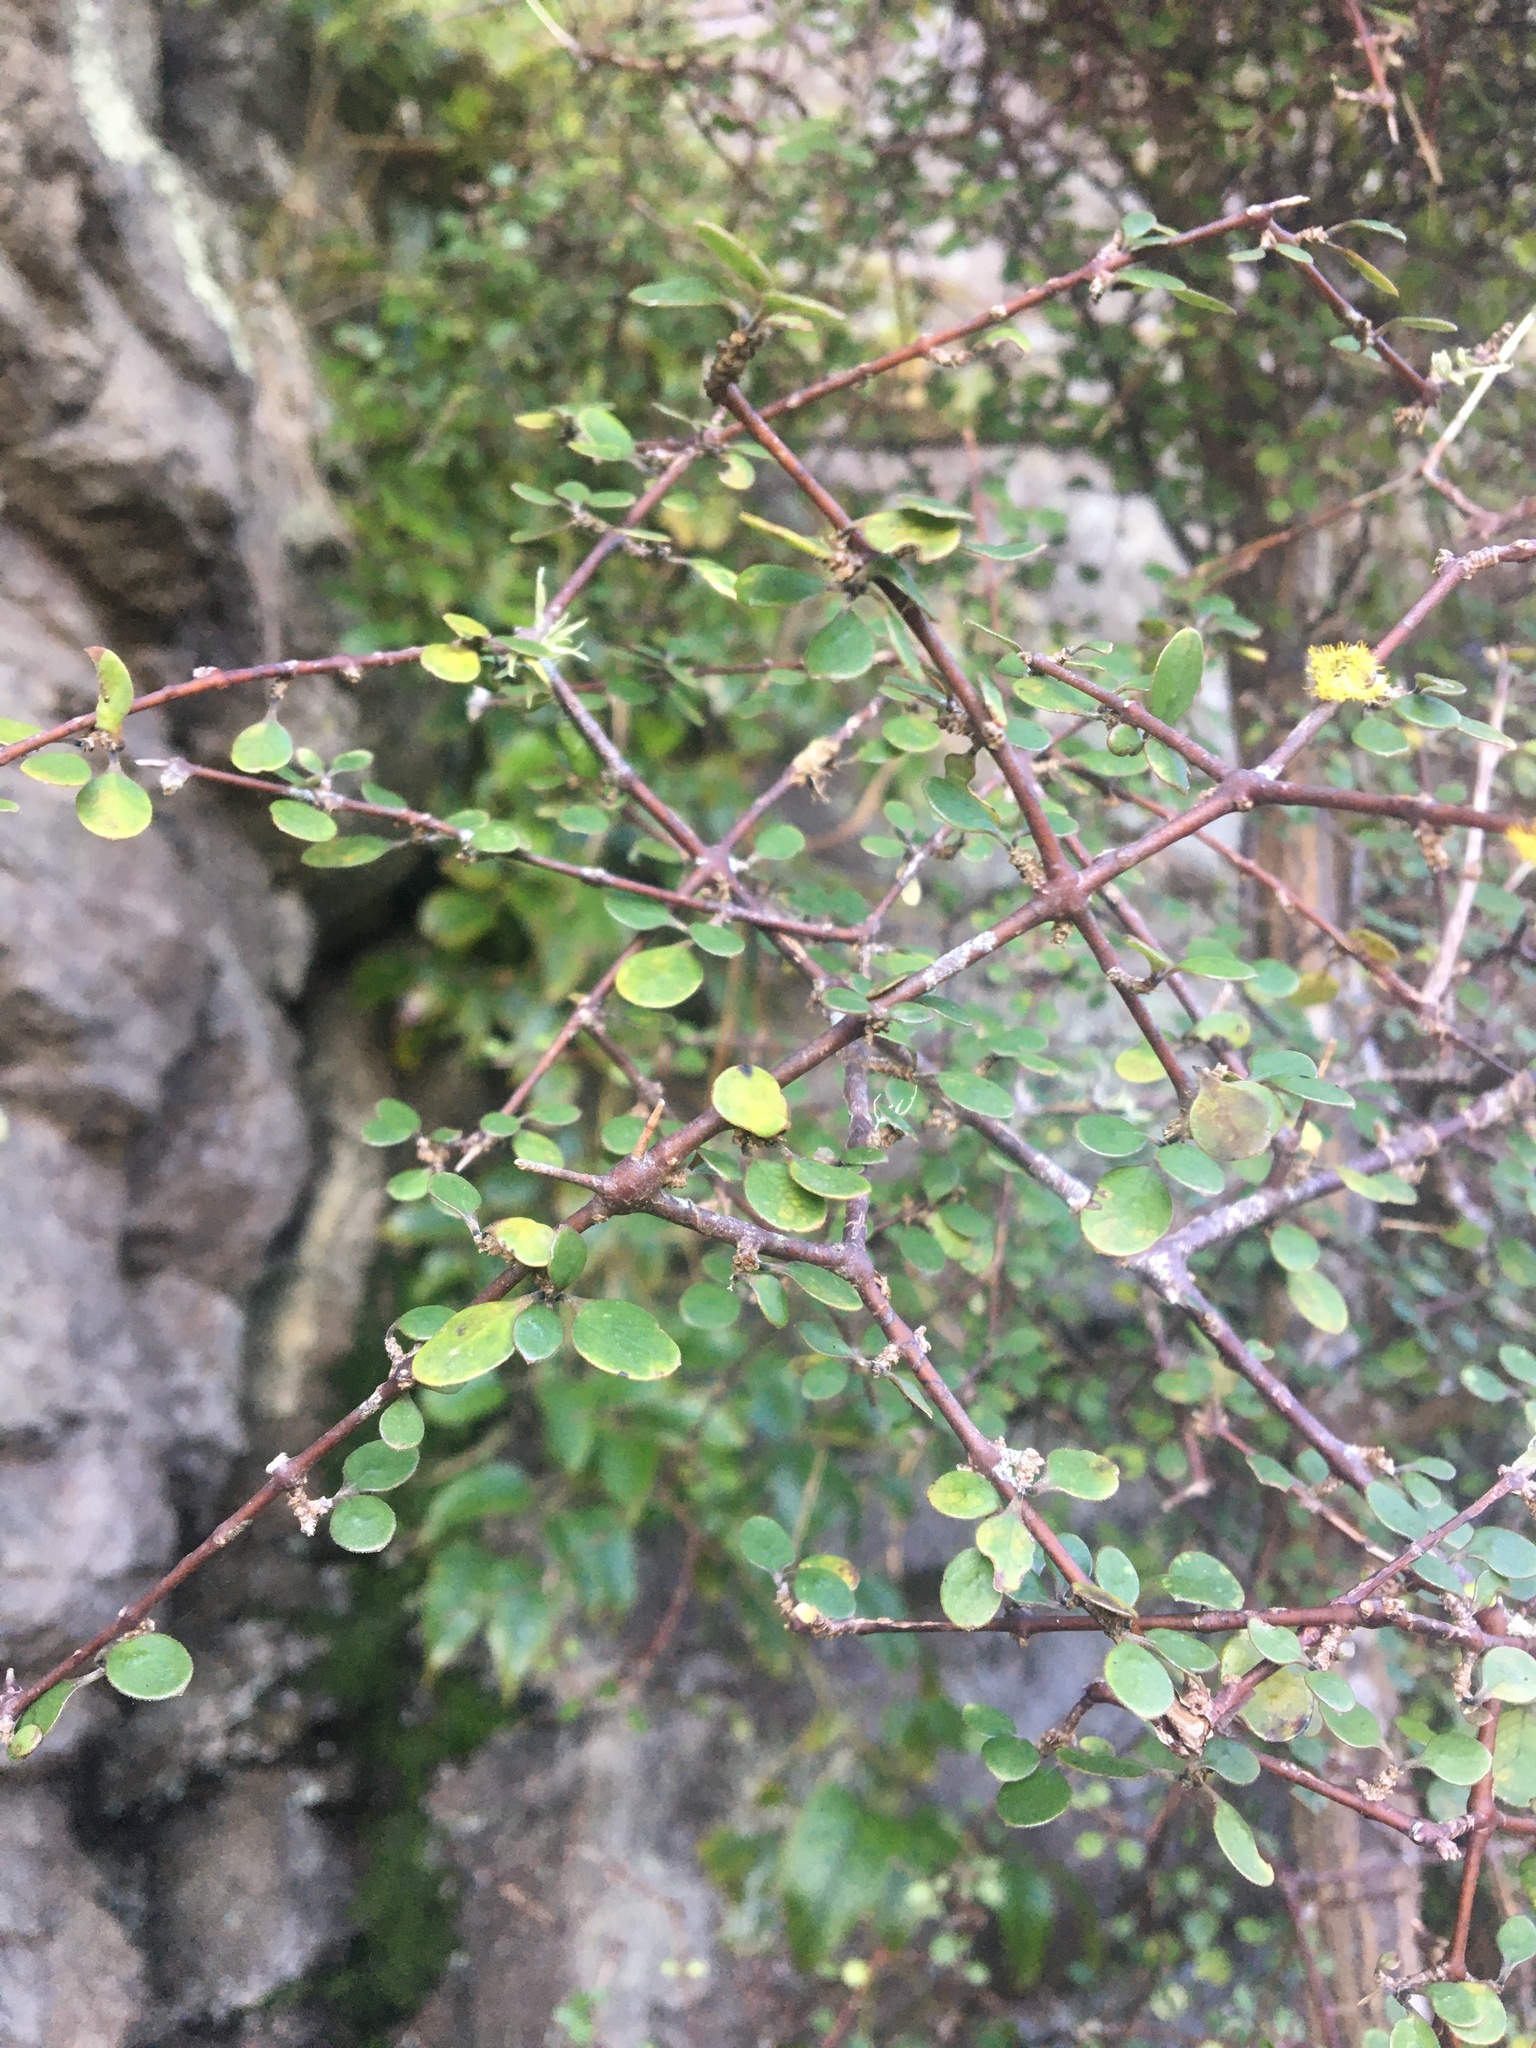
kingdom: Plantae
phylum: Tracheophyta
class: Magnoliopsida
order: Gentianales
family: Rubiaceae
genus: Coprosma
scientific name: Coprosma crassifolia
